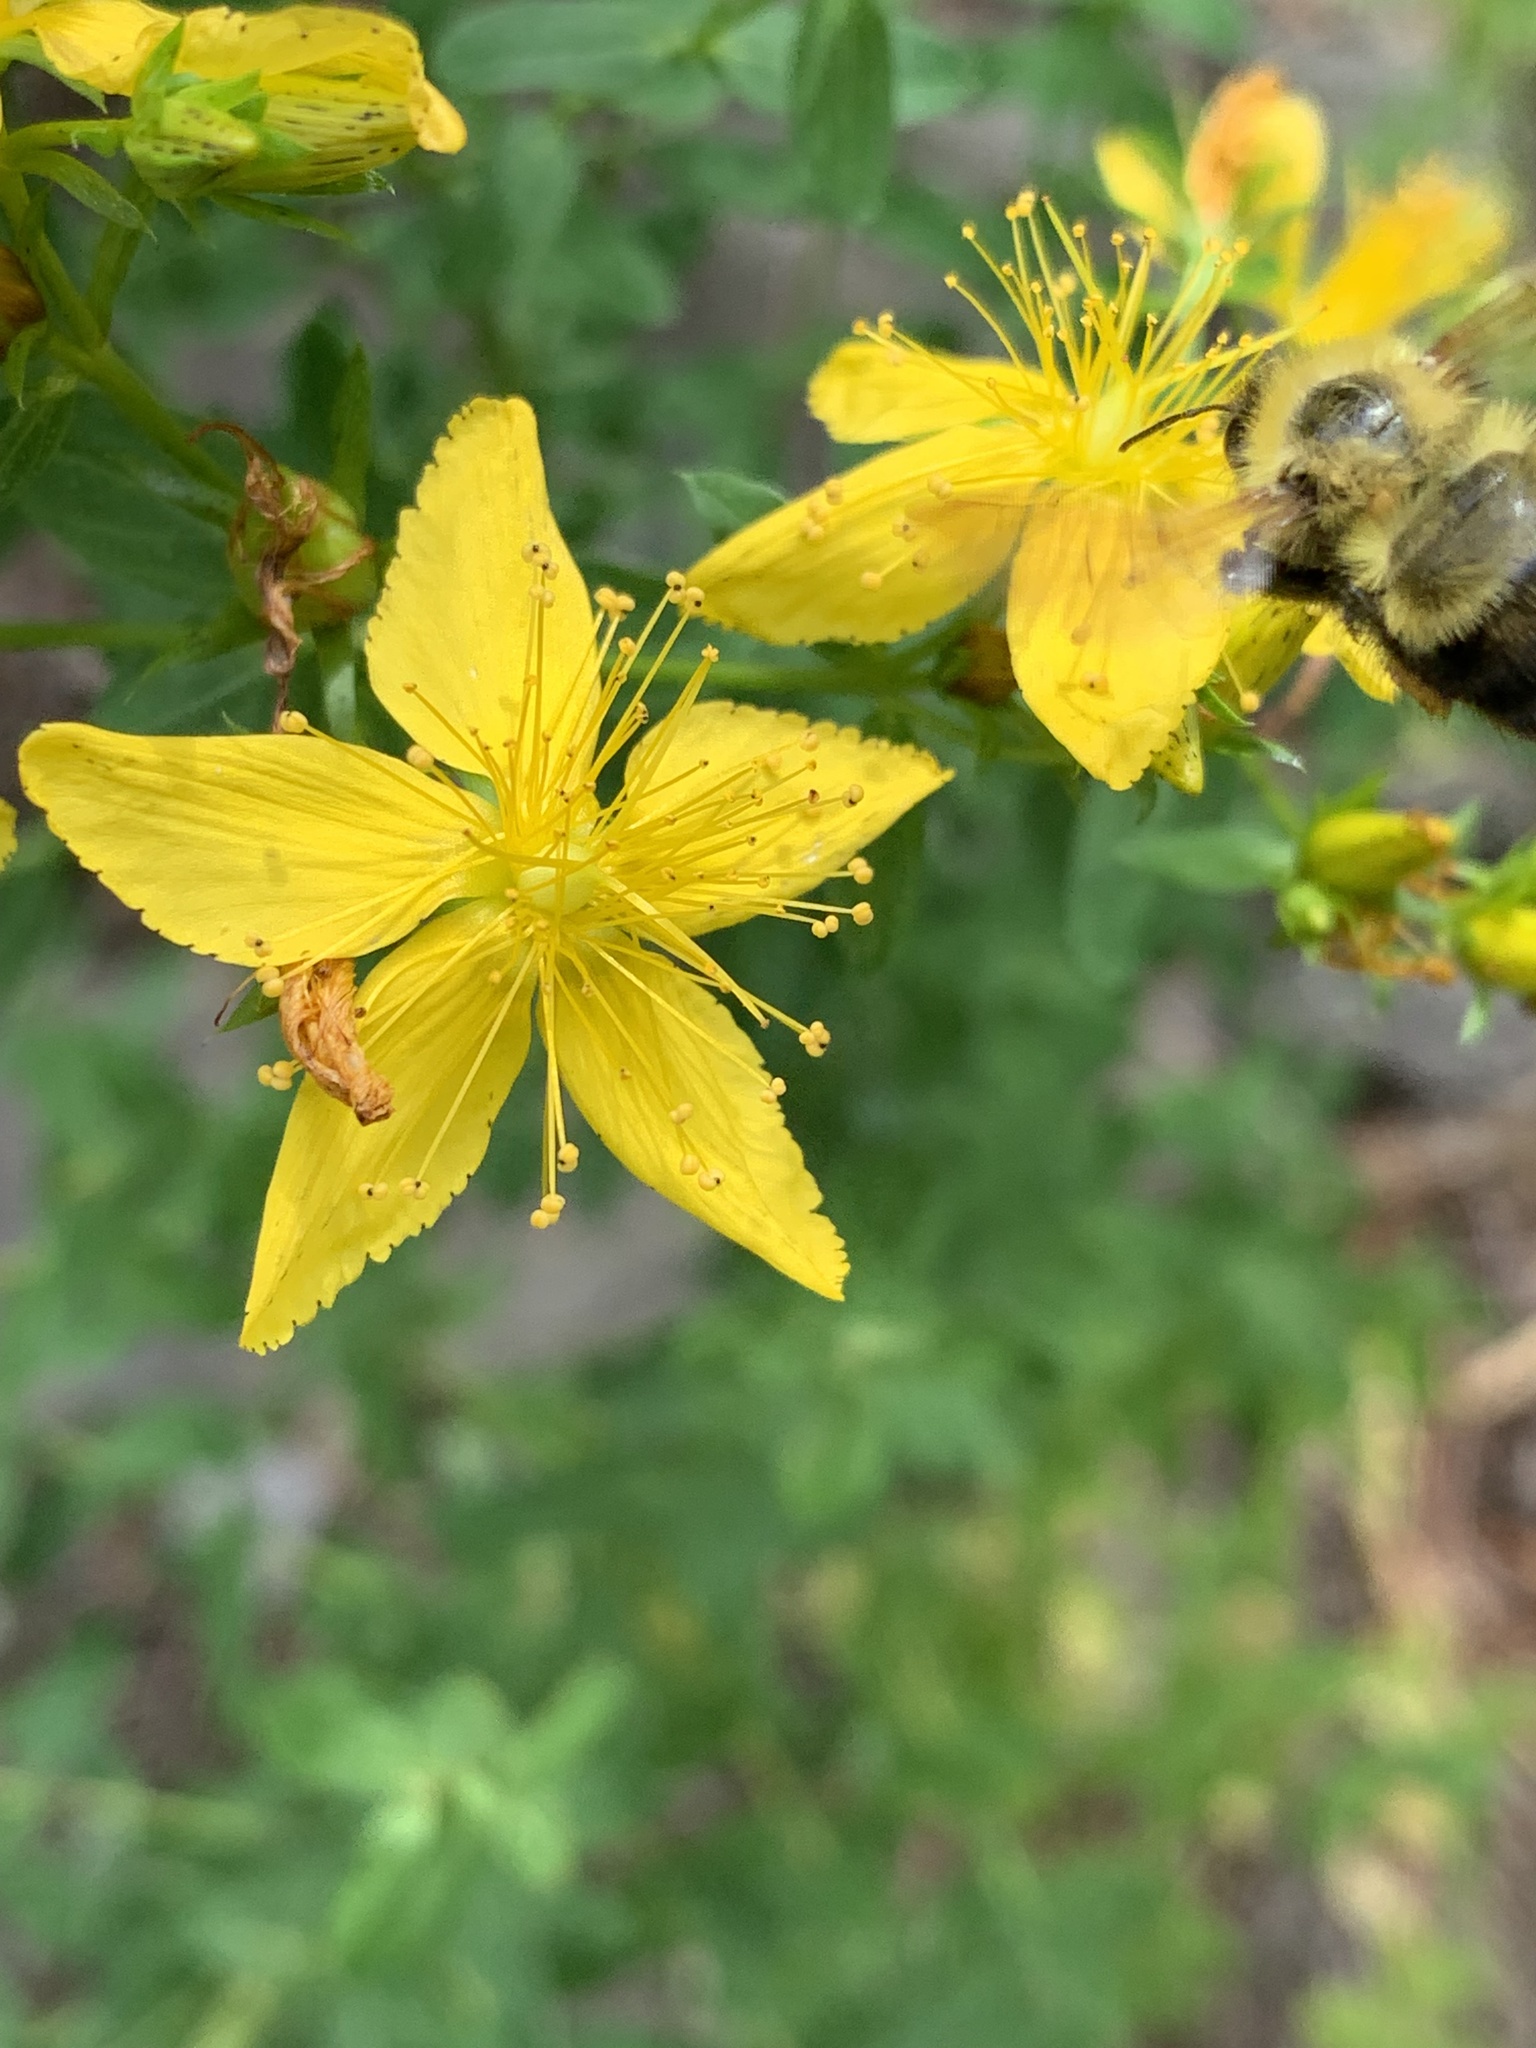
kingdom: Animalia
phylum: Arthropoda
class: Insecta
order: Hymenoptera
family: Apidae
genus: Bombus
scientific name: Bombus perplexus
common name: Confusing bumble bee
